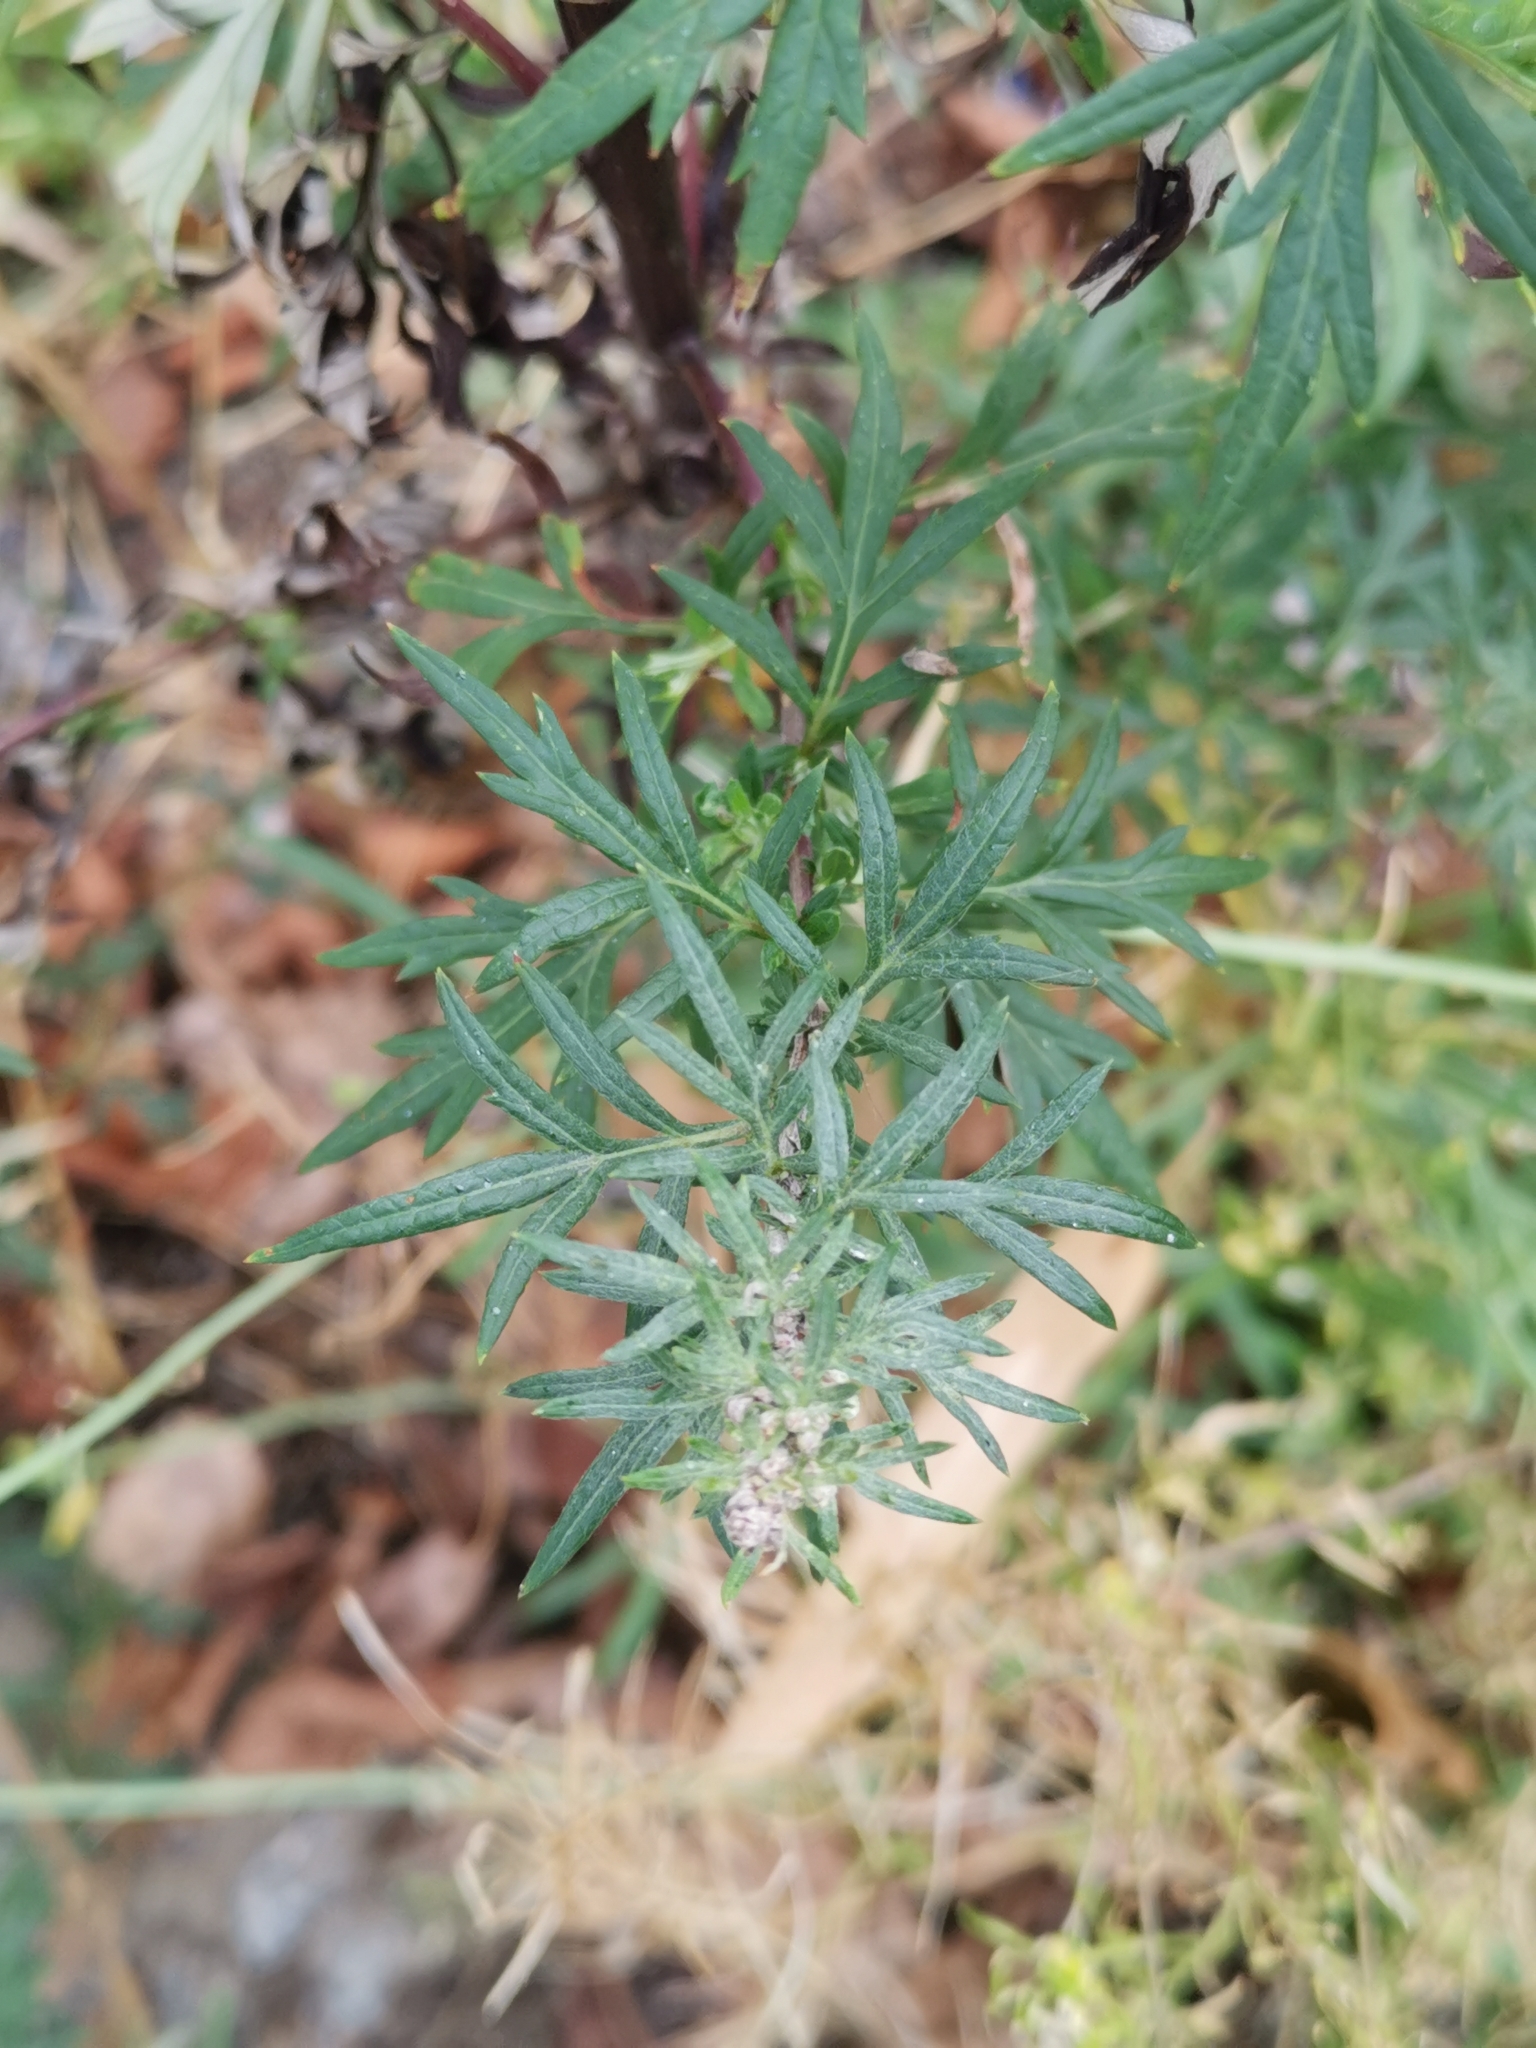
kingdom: Plantae
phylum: Tracheophyta
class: Magnoliopsida
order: Asterales
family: Asteraceae
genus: Artemisia
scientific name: Artemisia vulgaris
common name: Mugwort
